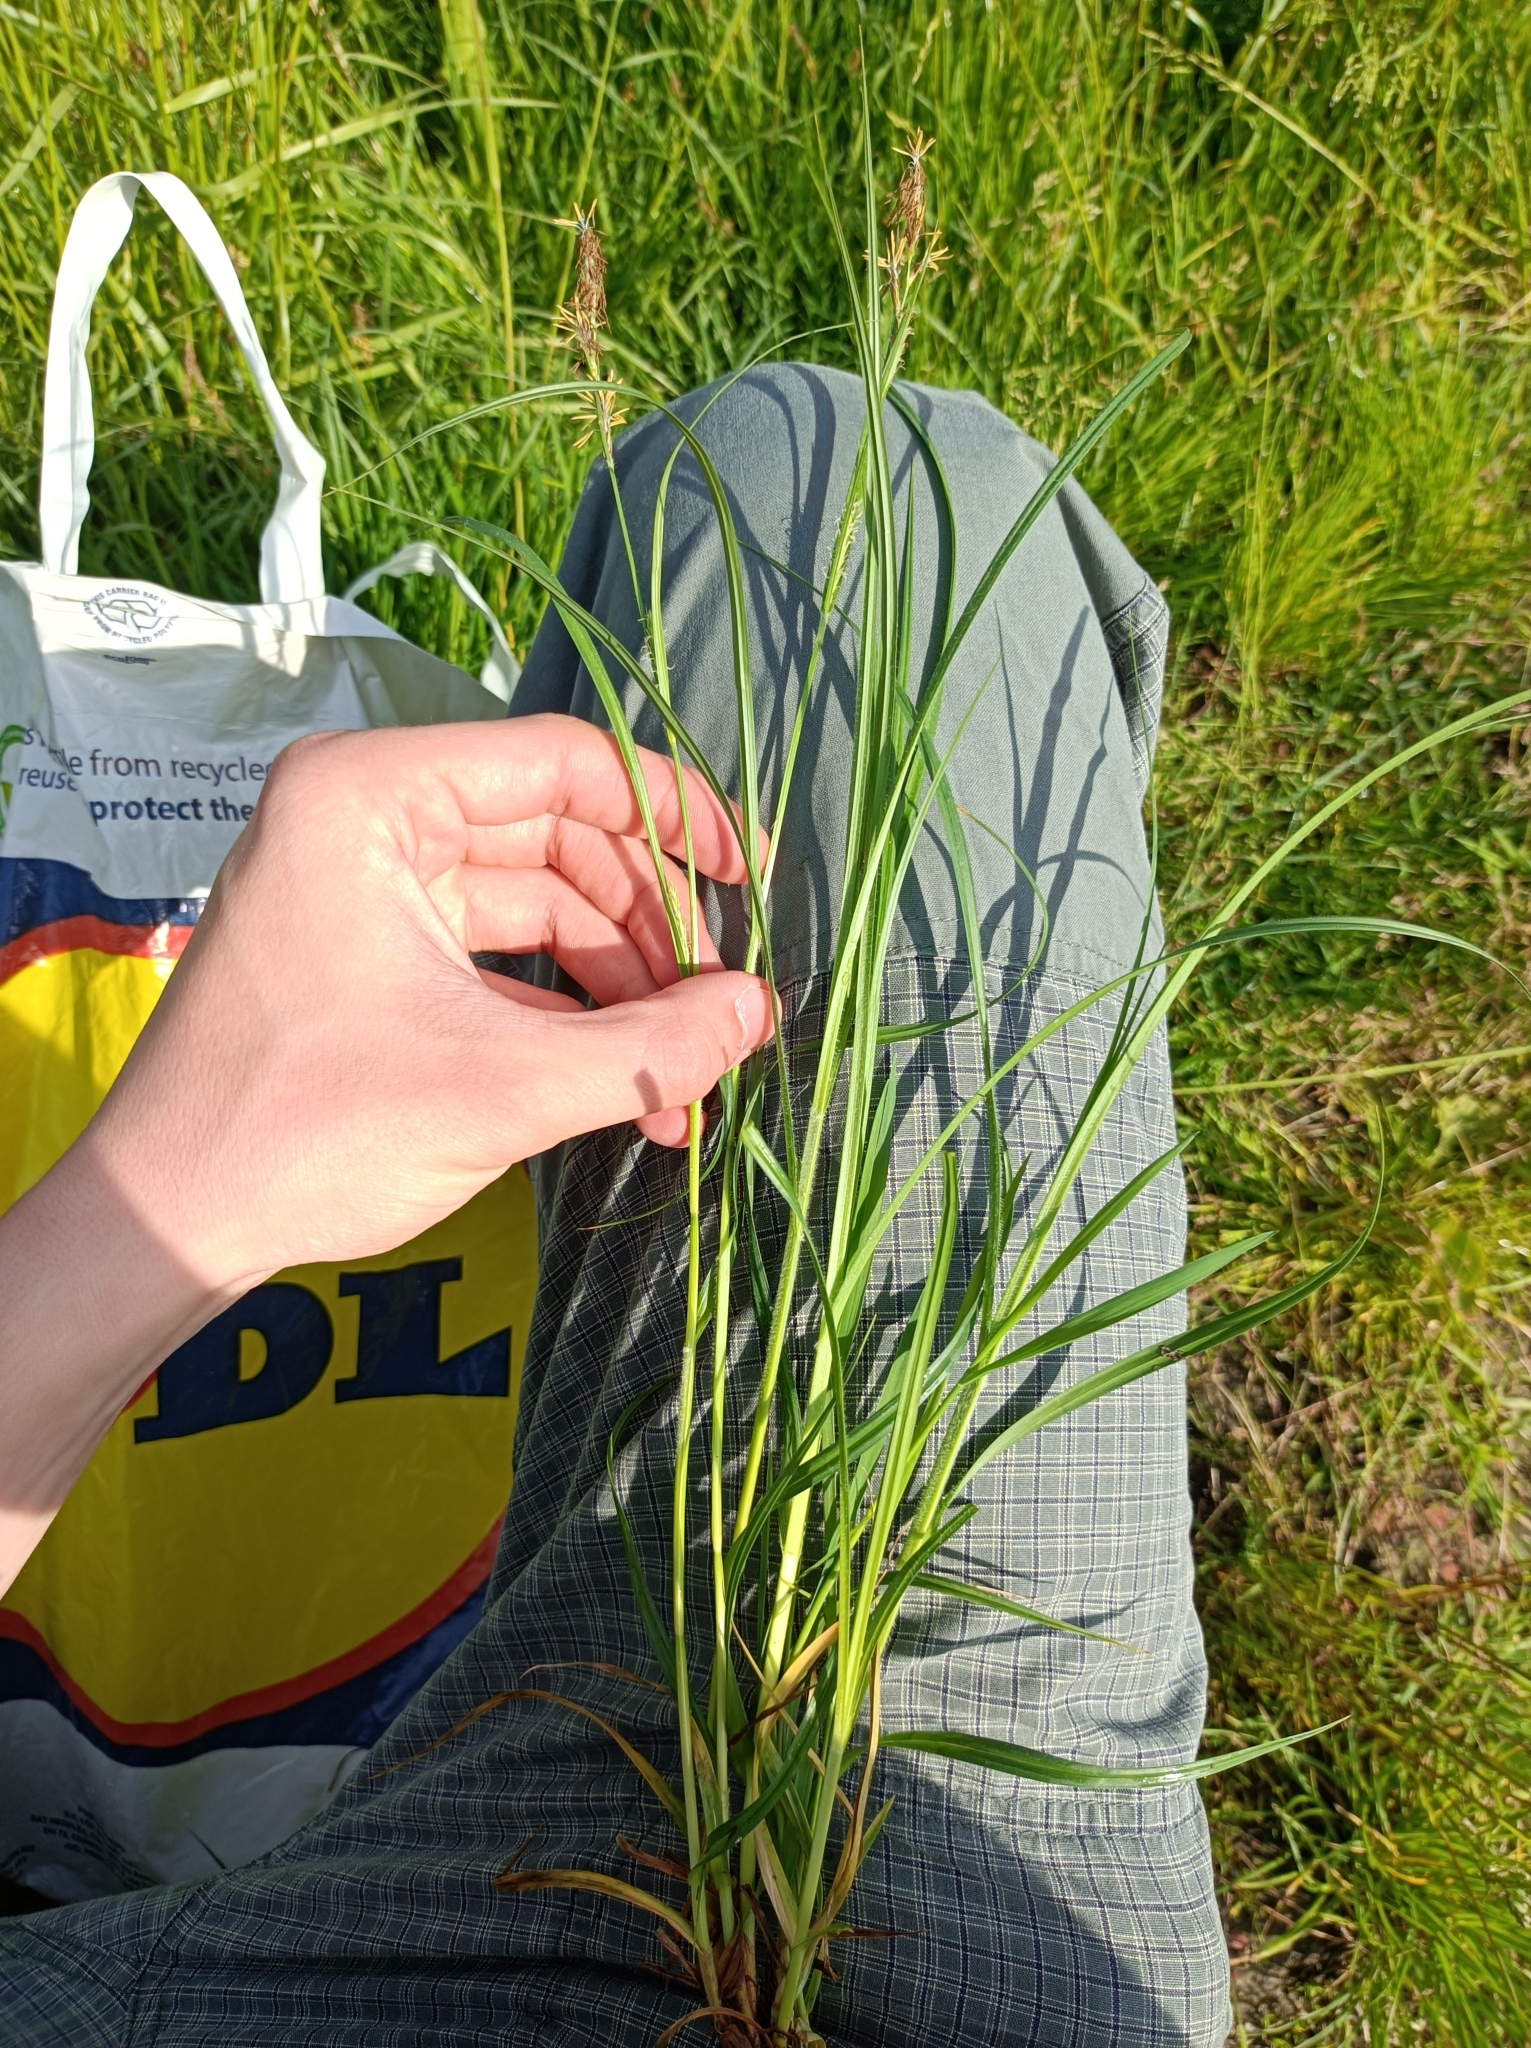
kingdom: Plantae
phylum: Tracheophyta
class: Liliopsida
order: Poales
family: Cyperaceae
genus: Carex
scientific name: Carex hirta
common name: Hairy sedge
